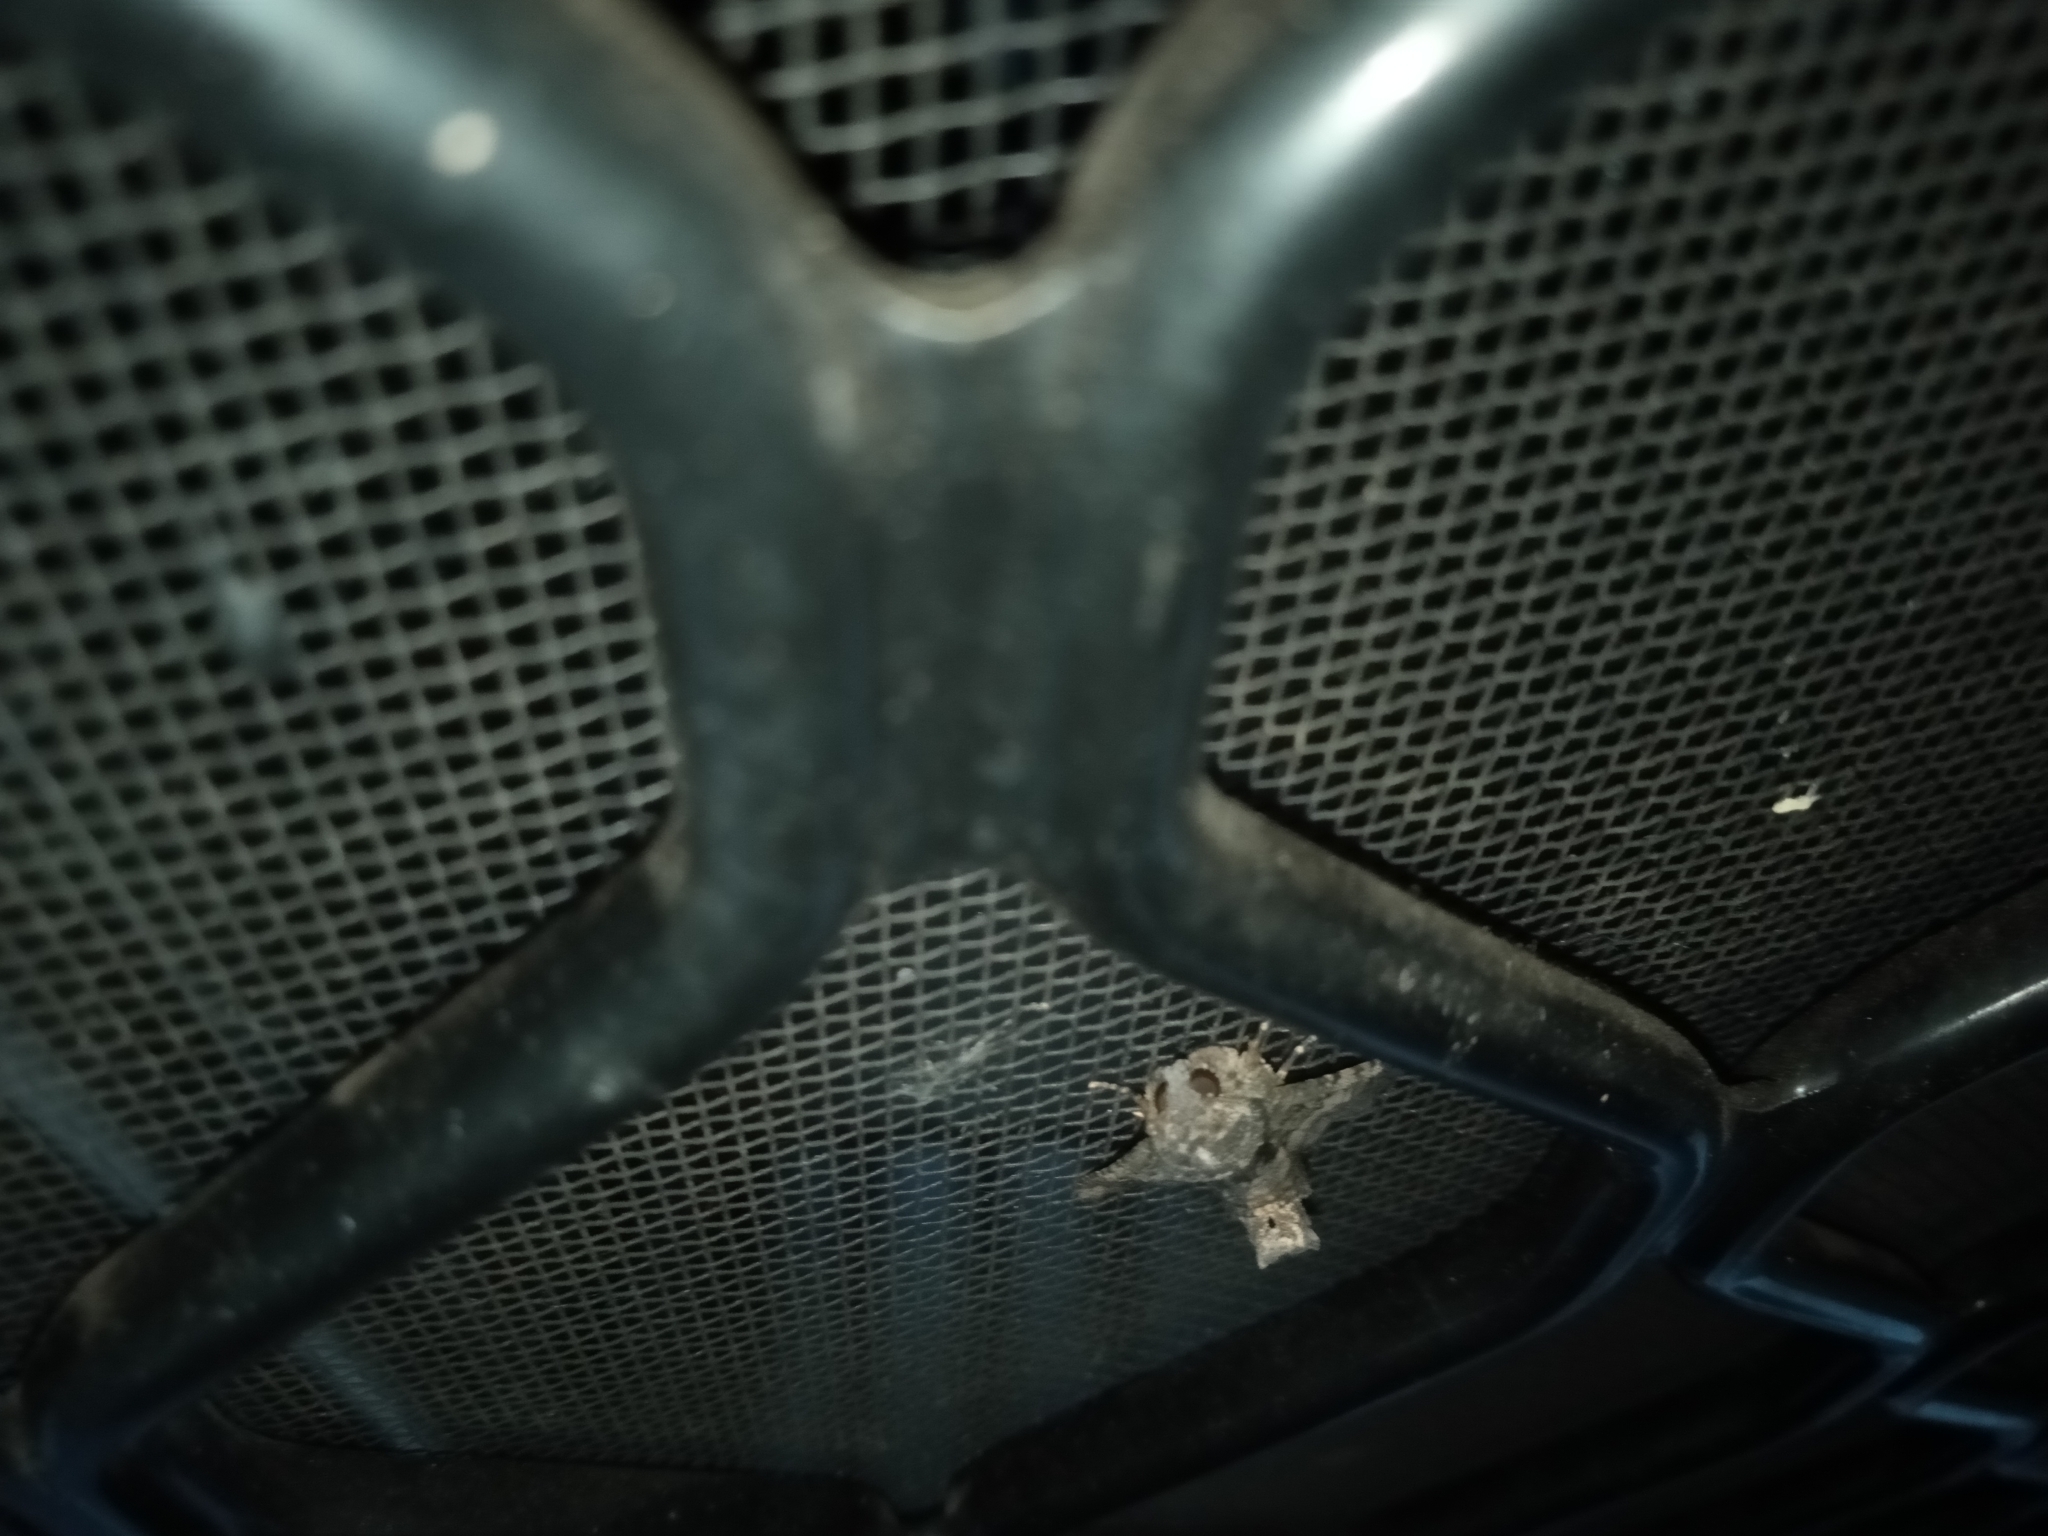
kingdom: Animalia
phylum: Arthropoda
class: Insecta
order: Lepidoptera
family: Euteliidae
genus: Pataeta
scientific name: Pataeta carbo
